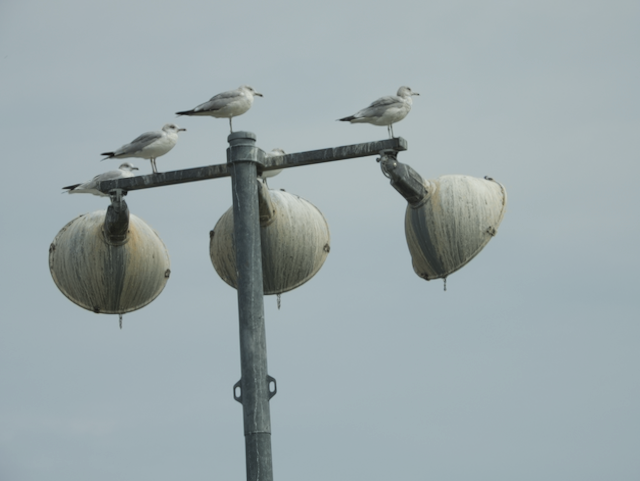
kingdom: Animalia
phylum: Chordata
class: Aves
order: Charadriiformes
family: Laridae
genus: Larus
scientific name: Larus delawarensis
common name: Ring-billed gull
